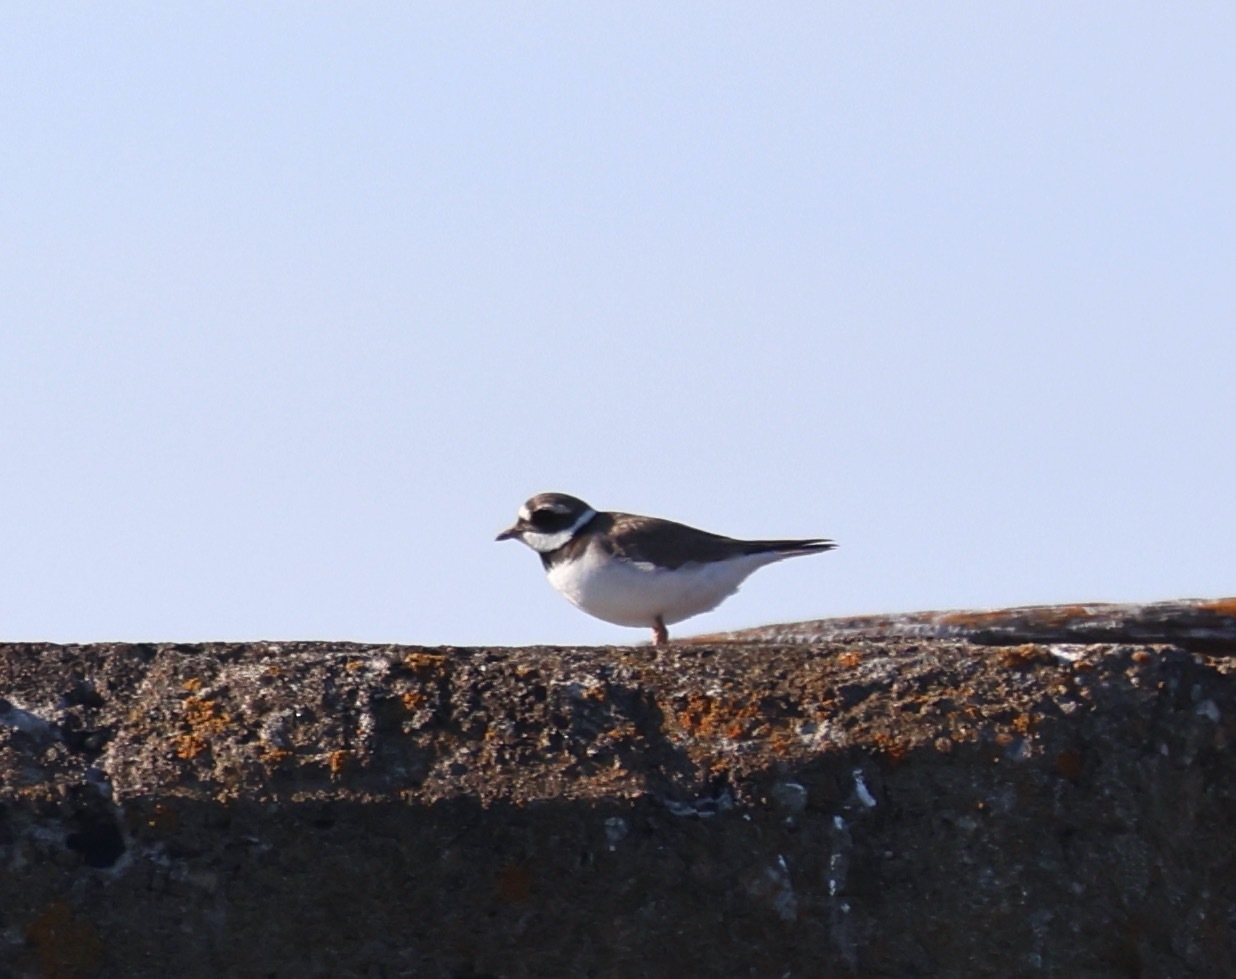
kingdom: Animalia
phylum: Chordata
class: Aves
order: Charadriiformes
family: Charadriidae
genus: Charadrius
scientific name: Charadrius hiaticula
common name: Common ringed plover
